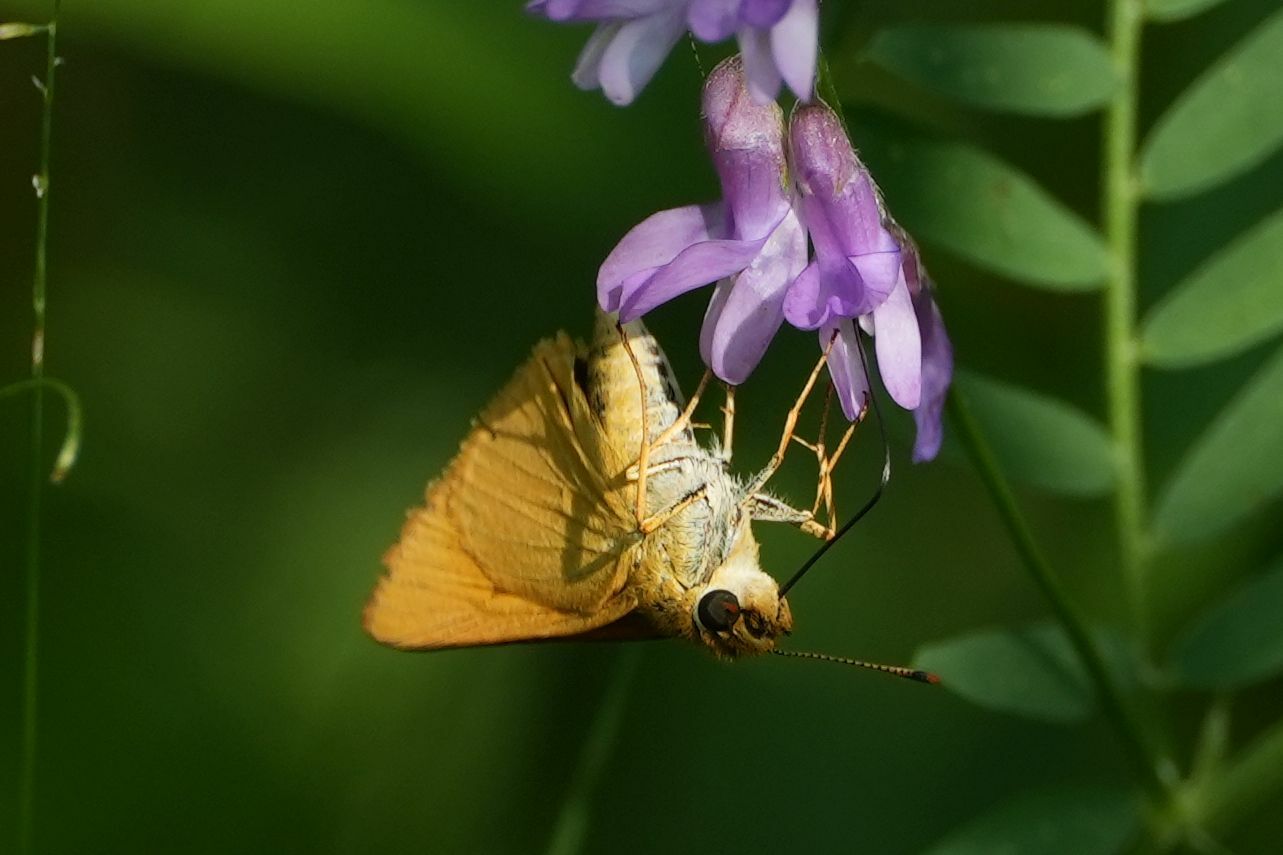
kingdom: Animalia
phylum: Arthropoda
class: Insecta
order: Lepidoptera
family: Hesperiidae
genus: Atrytone
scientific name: Atrytone delaware
